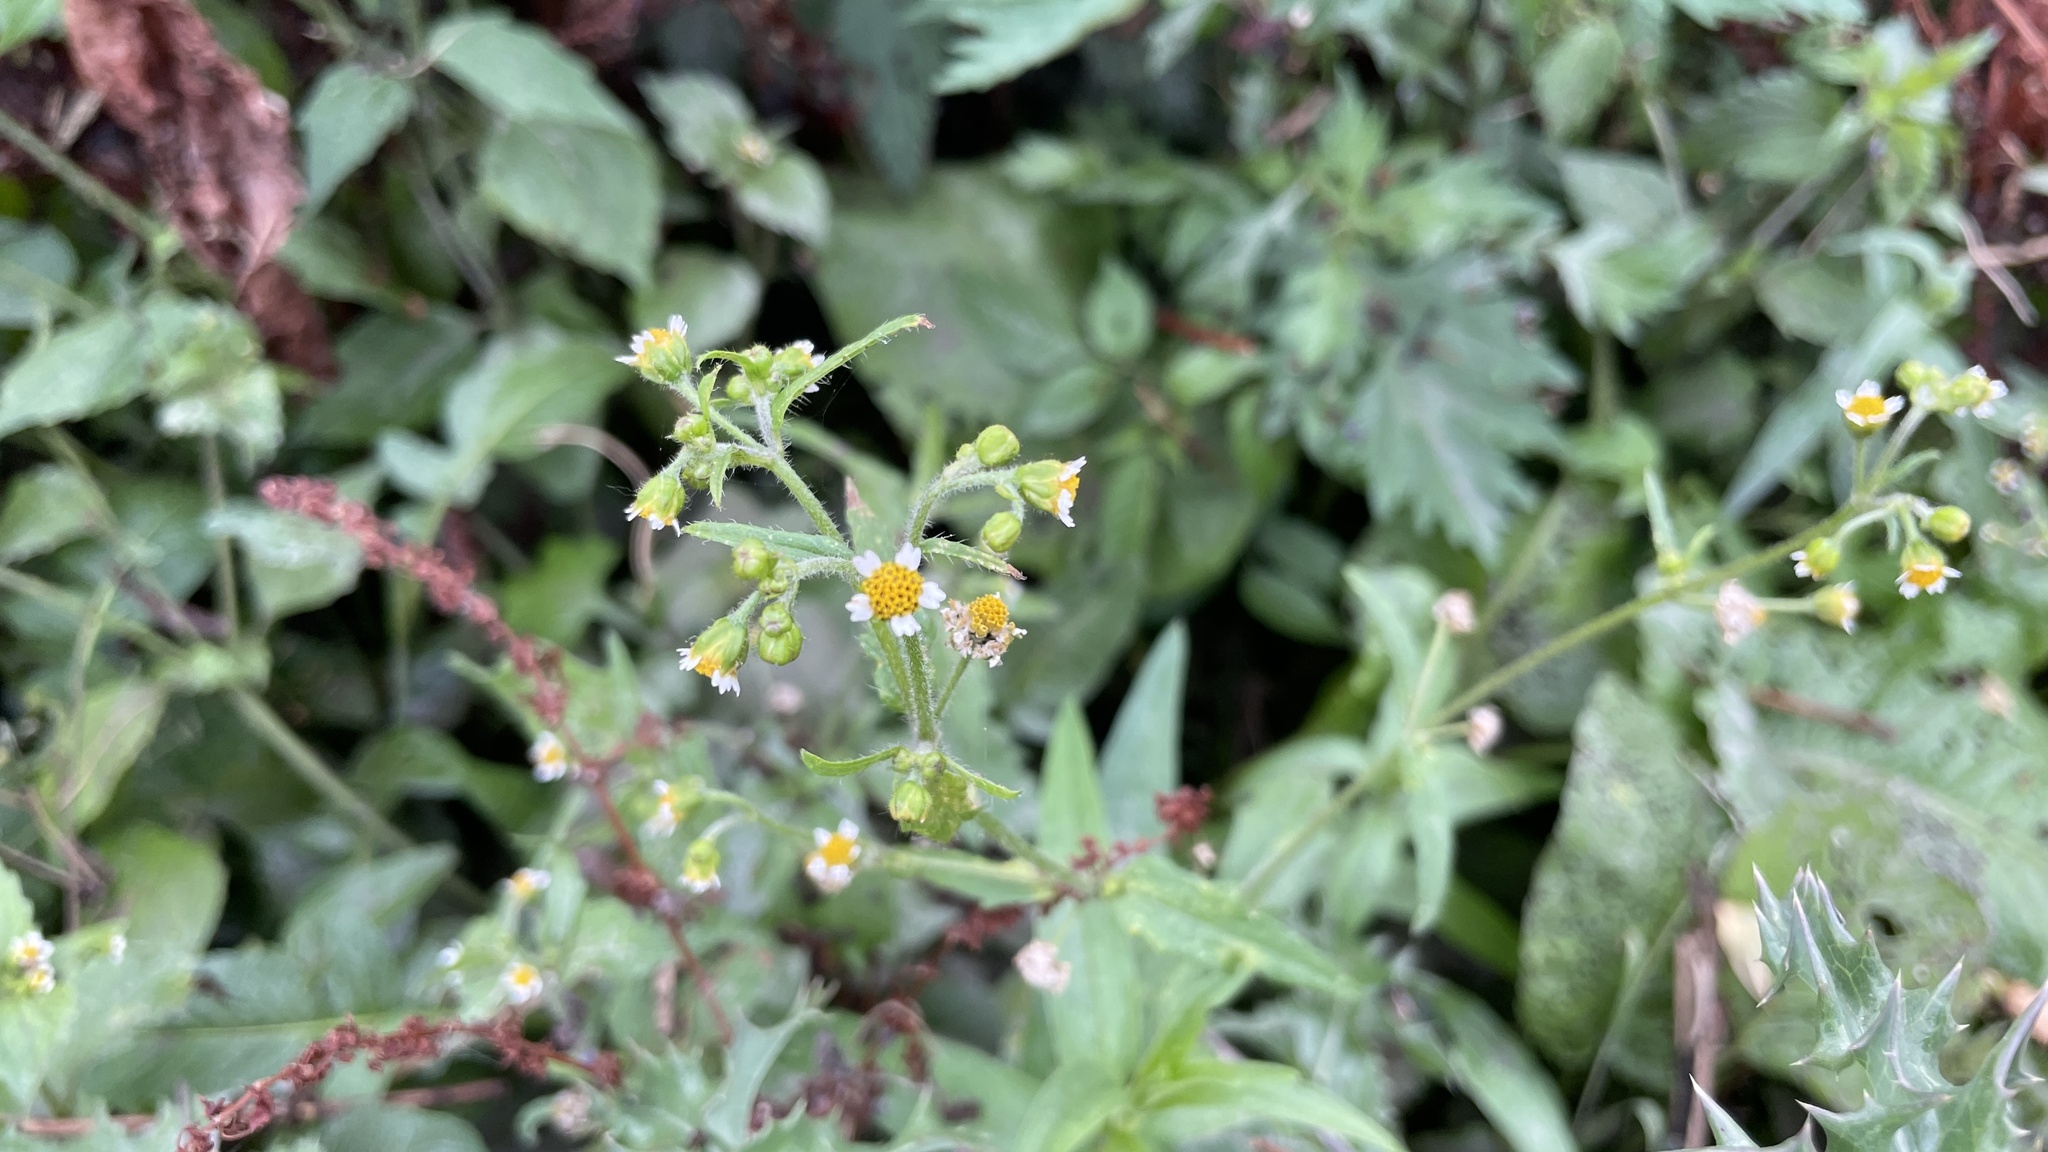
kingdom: Plantae
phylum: Tracheophyta
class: Magnoliopsida
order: Asterales
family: Asteraceae
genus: Galinsoga
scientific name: Galinsoga quadriradiata
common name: Shaggy soldier
